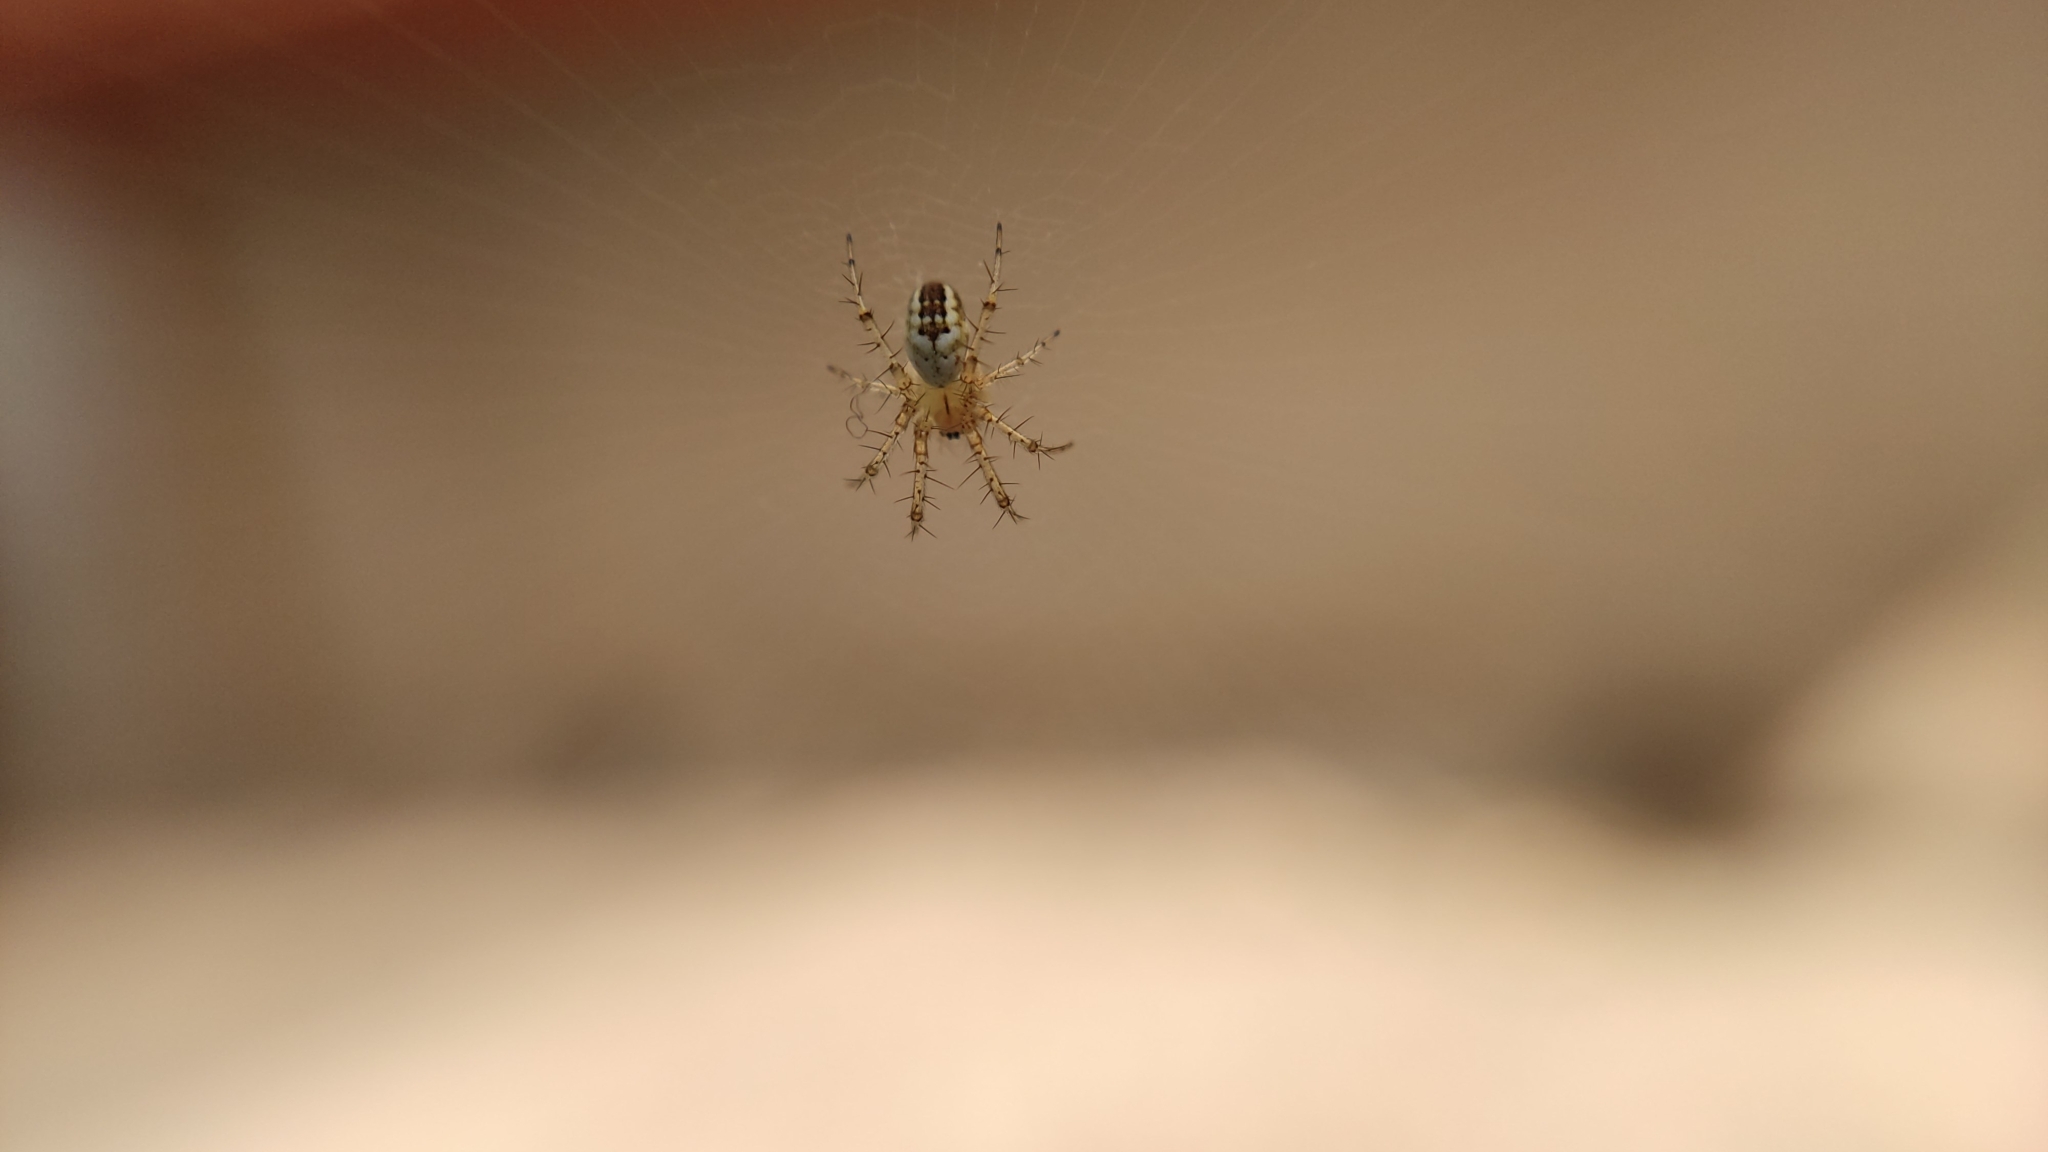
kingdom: Animalia
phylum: Arthropoda
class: Arachnida
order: Araneae
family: Araneidae
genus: Mangora
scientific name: Mangora acalypha
